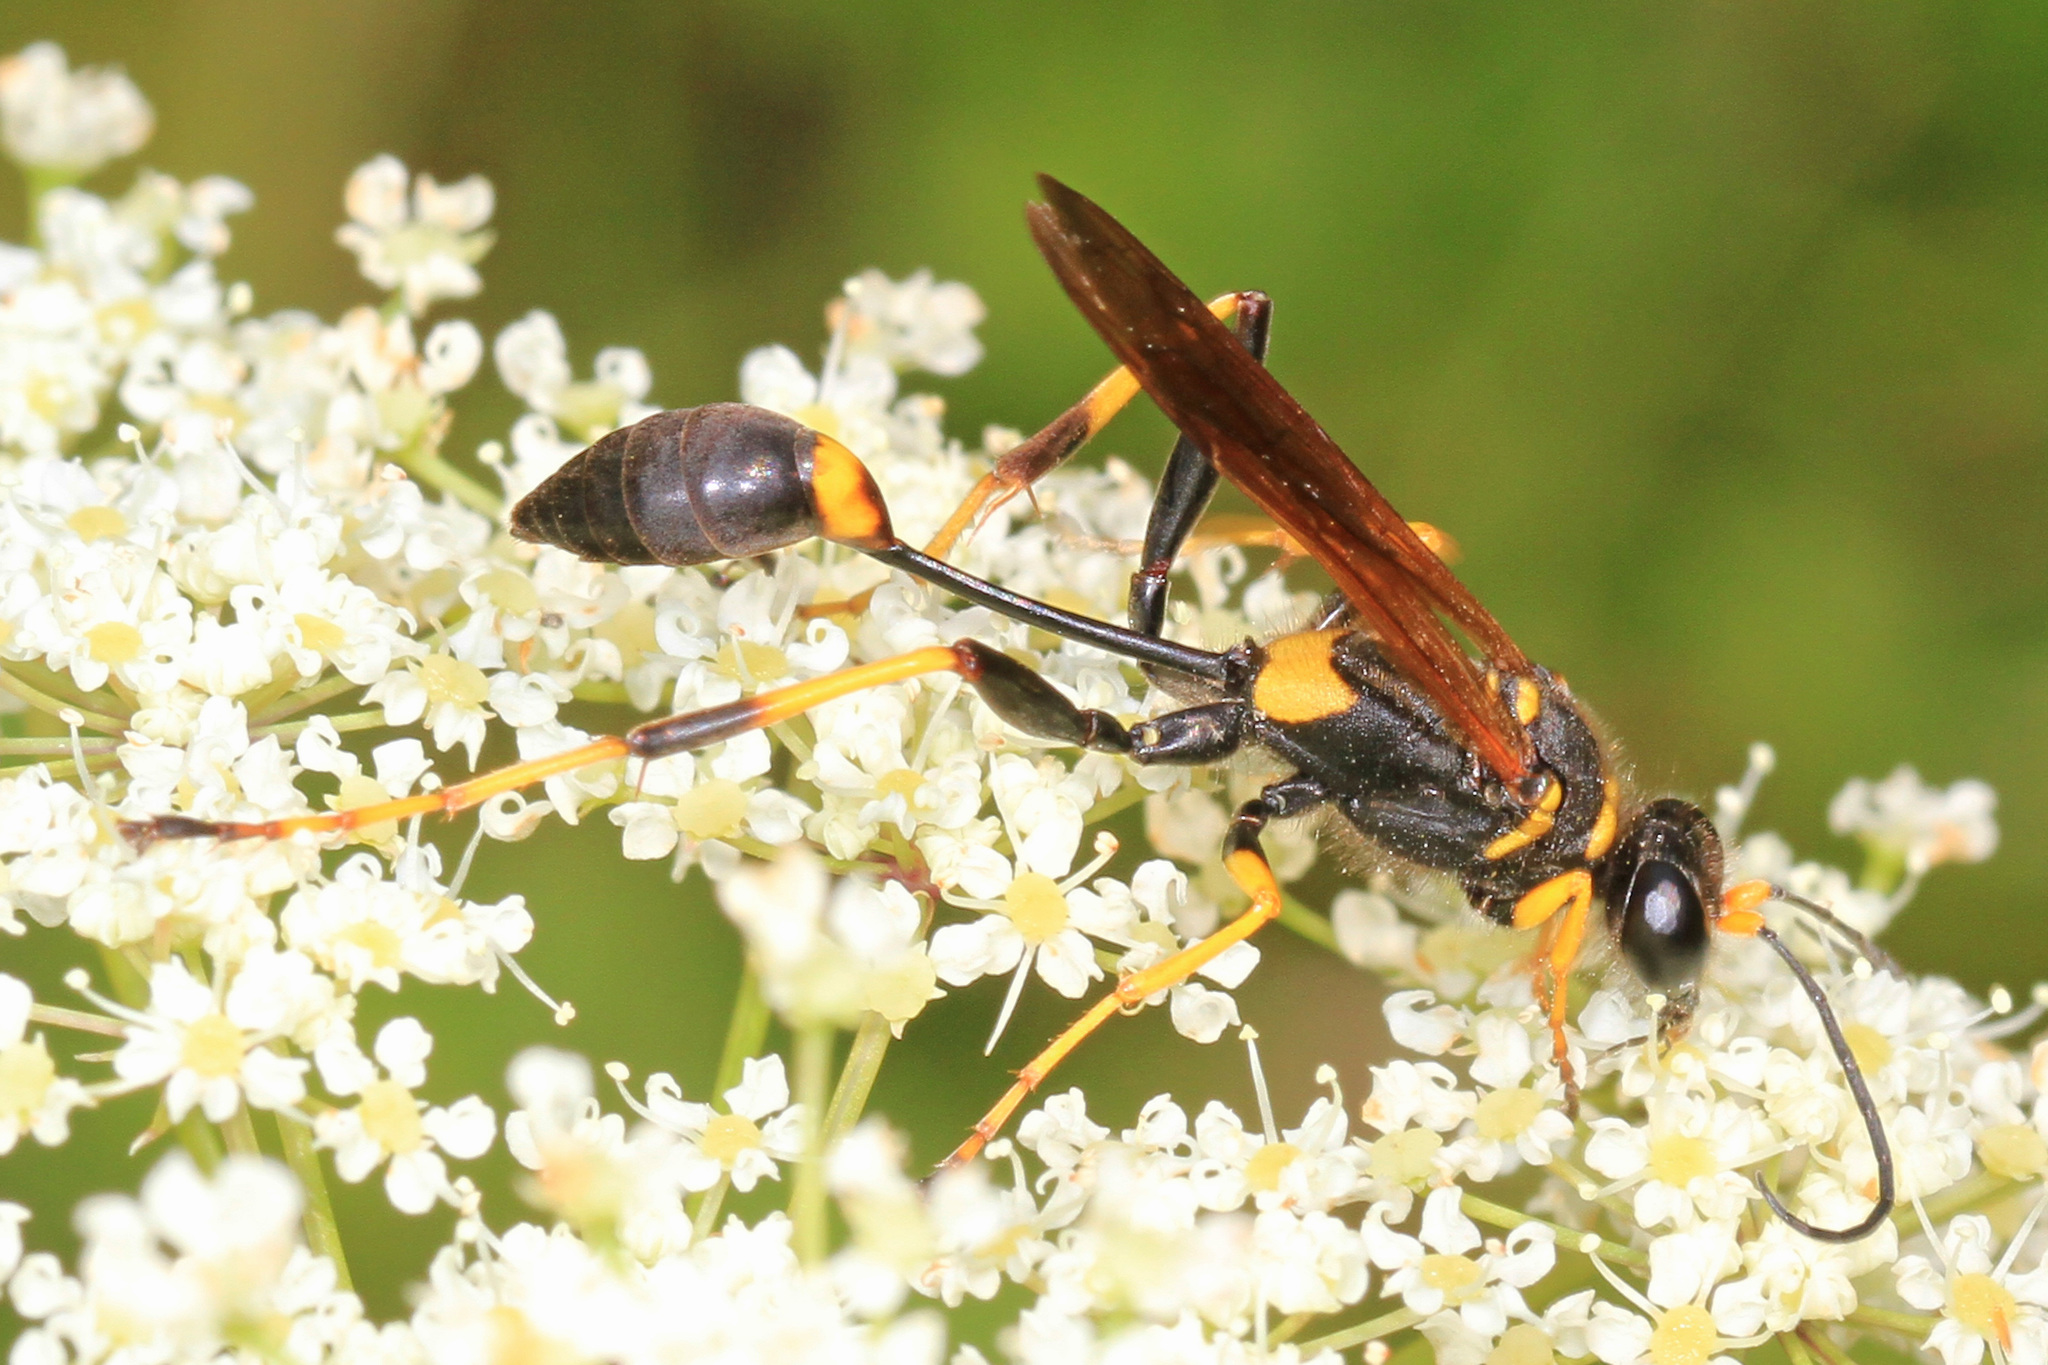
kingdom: Animalia
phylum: Arthropoda
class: Insecta
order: Hymenoptera
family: Sphecidae
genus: Sceliphron
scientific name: Sceliphron caementarium
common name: Mud dauber
